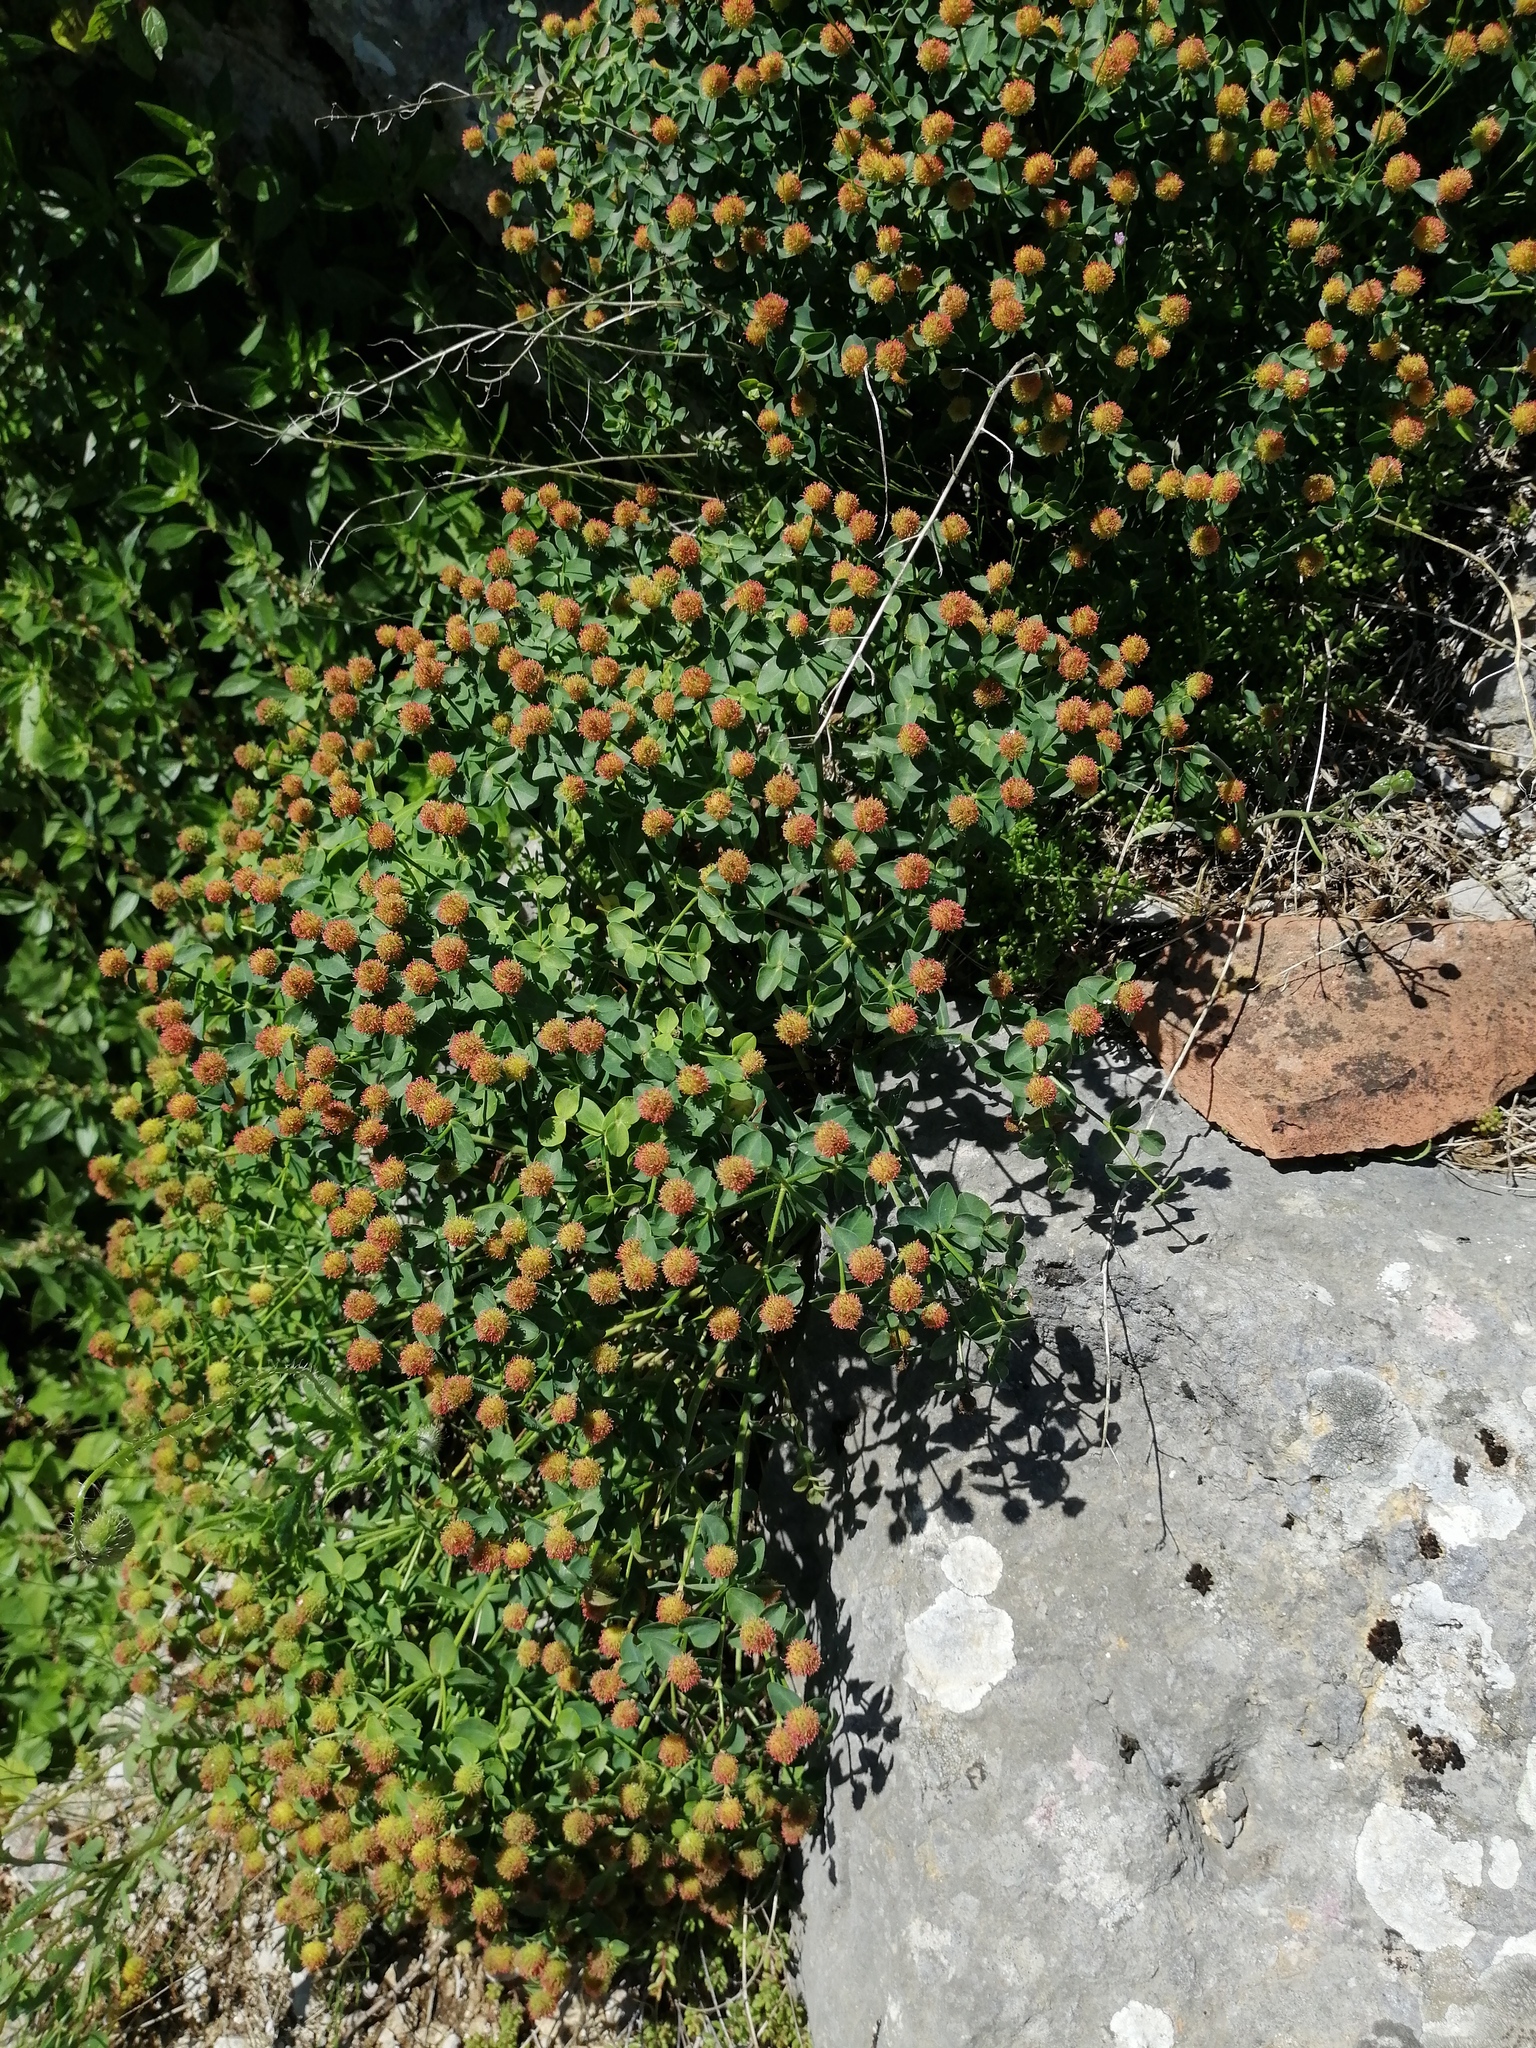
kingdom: Plantae
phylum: Tracheophyta
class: Magnoliopsida
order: Malpighiales
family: Euphorbiaceae
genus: Euphorbia
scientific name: Euphorbia fragifera
